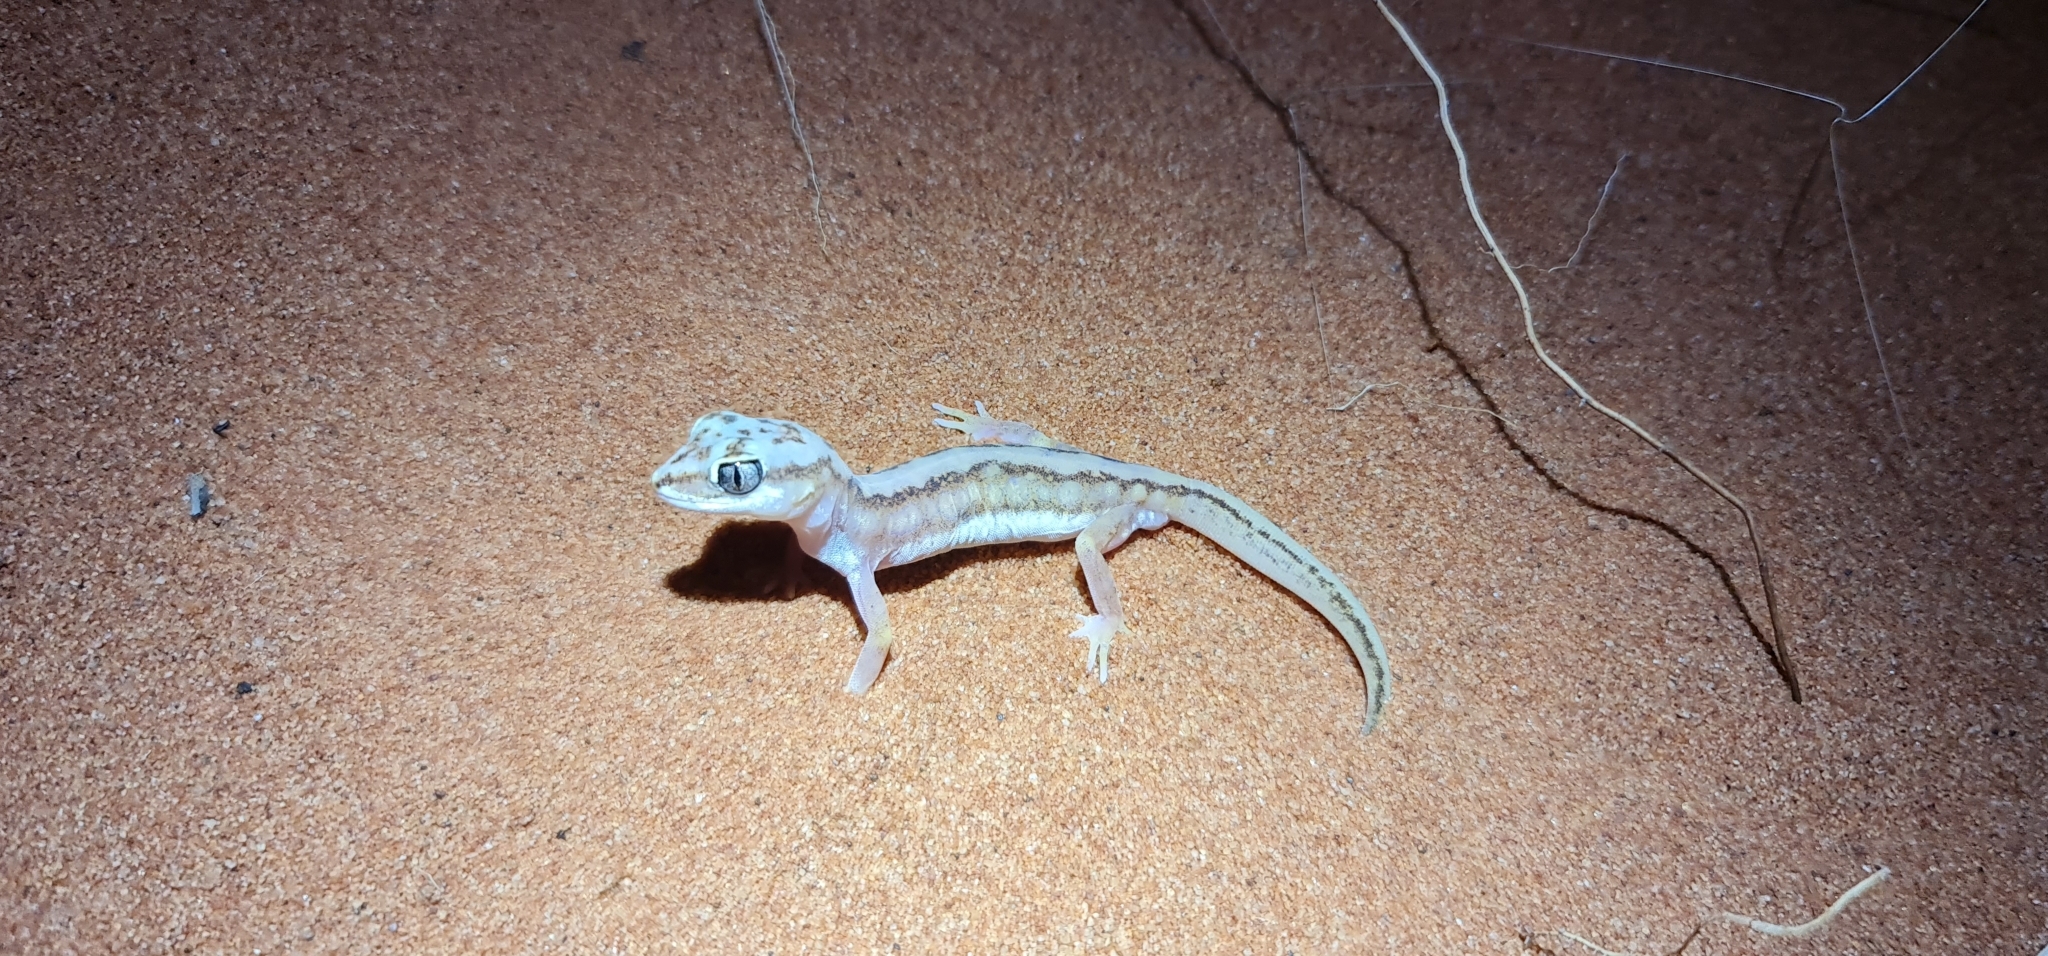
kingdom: Animalia
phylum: Chordata
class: Squamata
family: Diplodactylidae
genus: Lucasium
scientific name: Lucasium damaeum
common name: Beaded gecko
